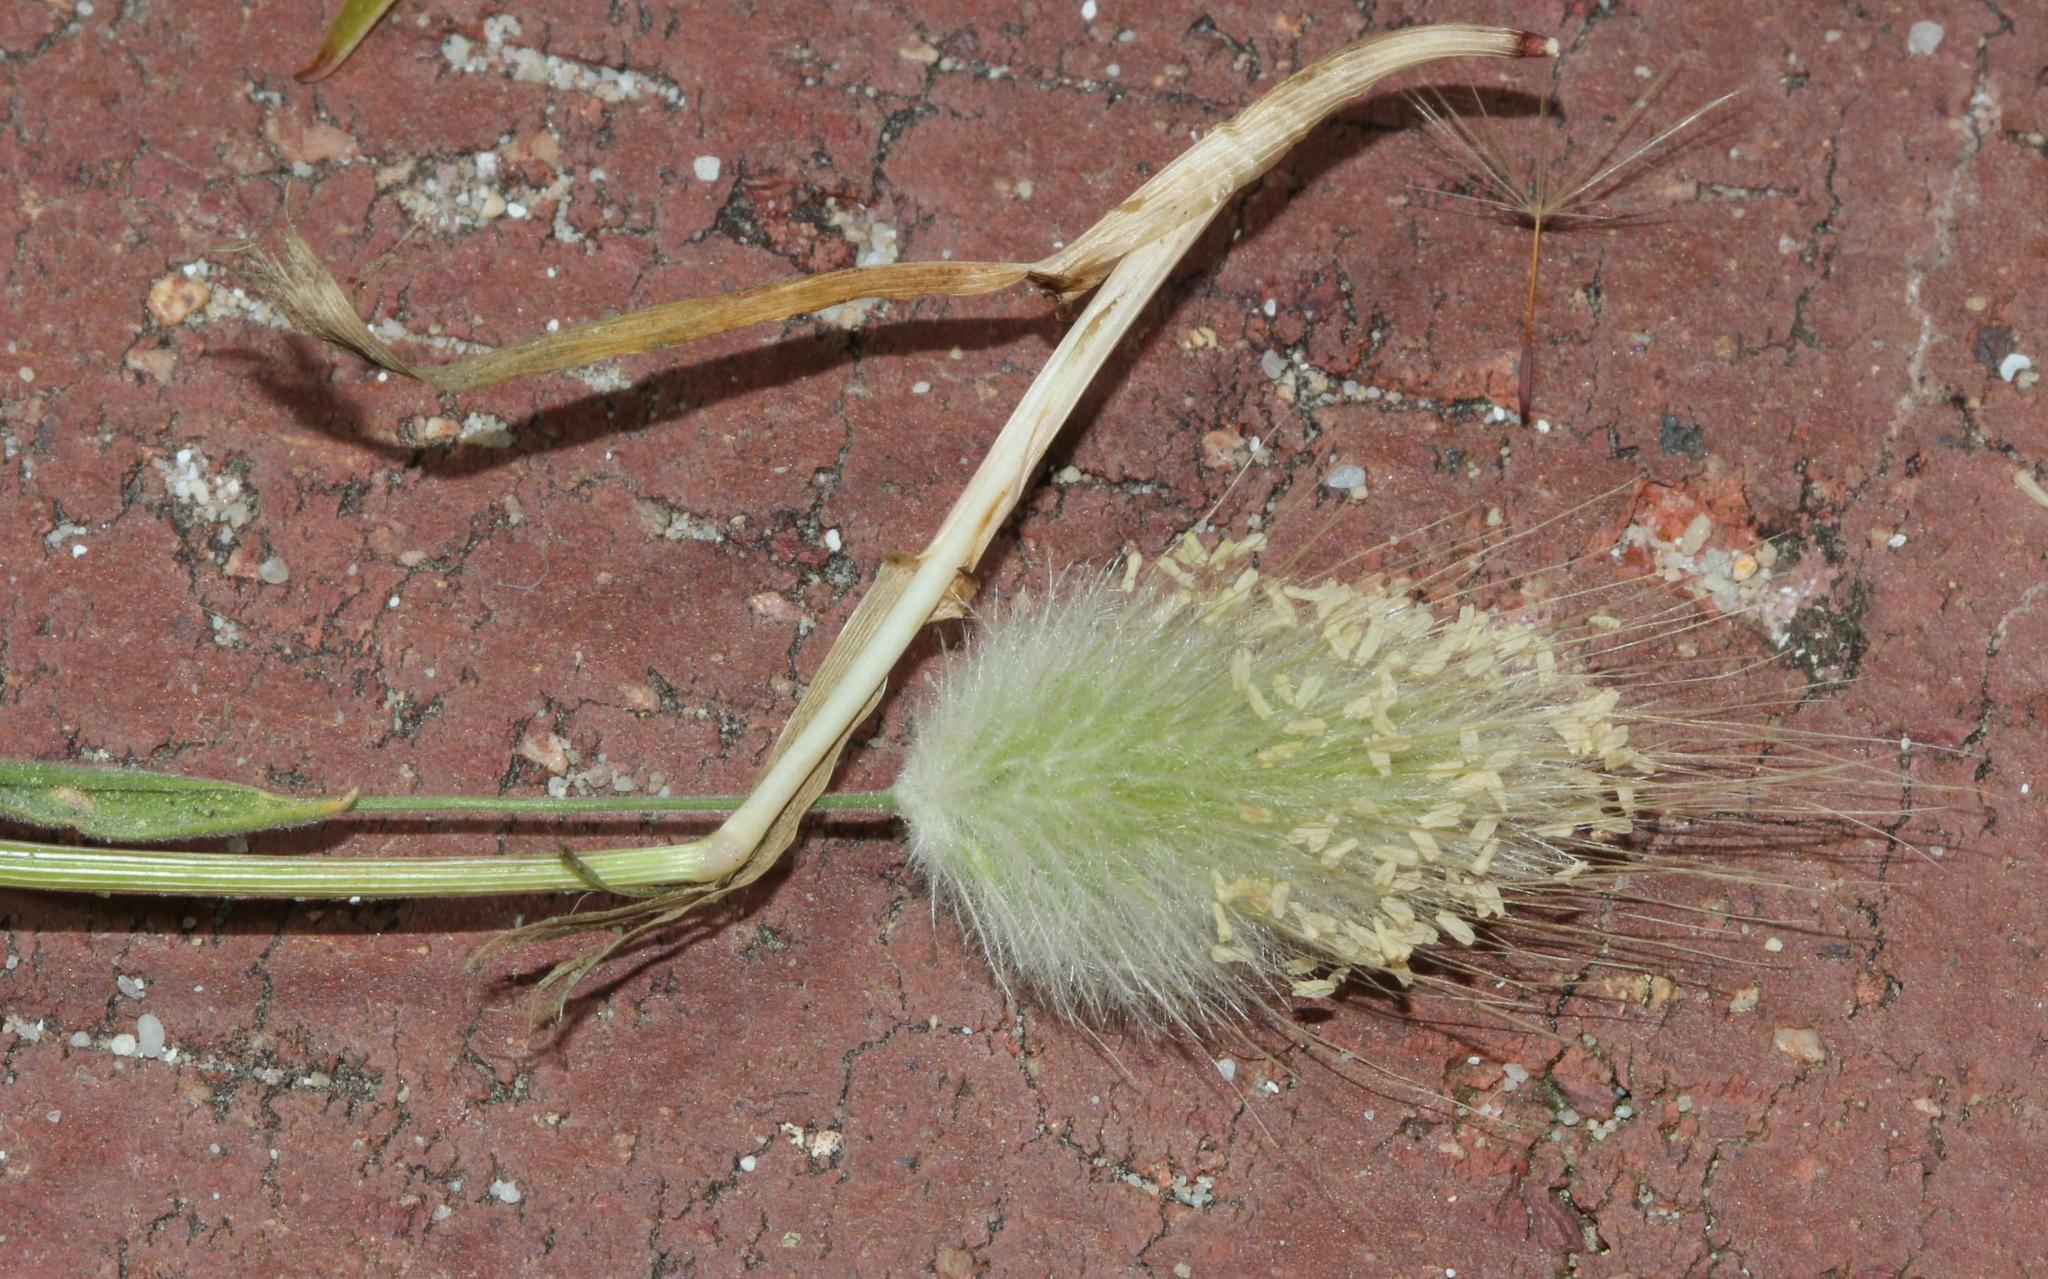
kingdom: Plantae
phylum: Tracheophyta
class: Liliopsida
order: Poales
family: Poaceae
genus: Lagurus
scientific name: Lagurus ovatus
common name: Hare's-tail
